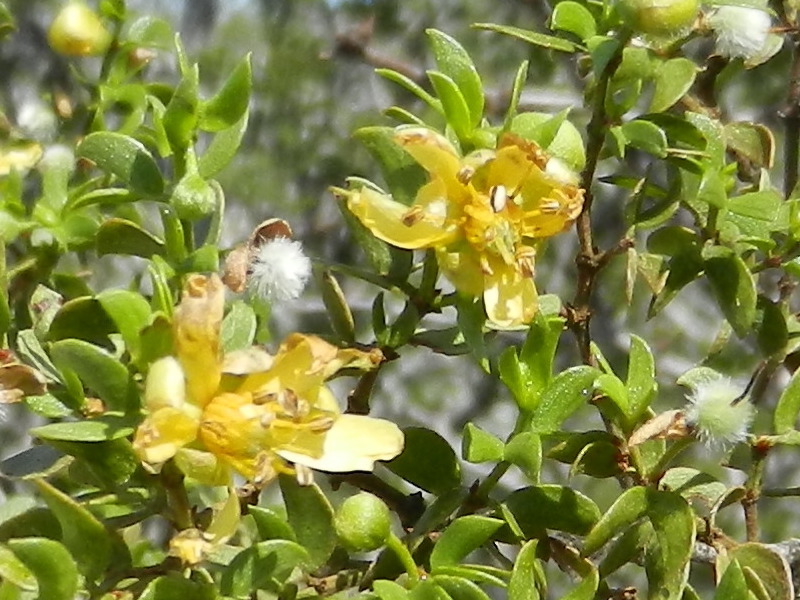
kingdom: Plantae
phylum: Tracheophyta
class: Magnoliopsida
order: Zygophyllales
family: Zygophyllaceae
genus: Larrea
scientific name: Larrea tridentata
